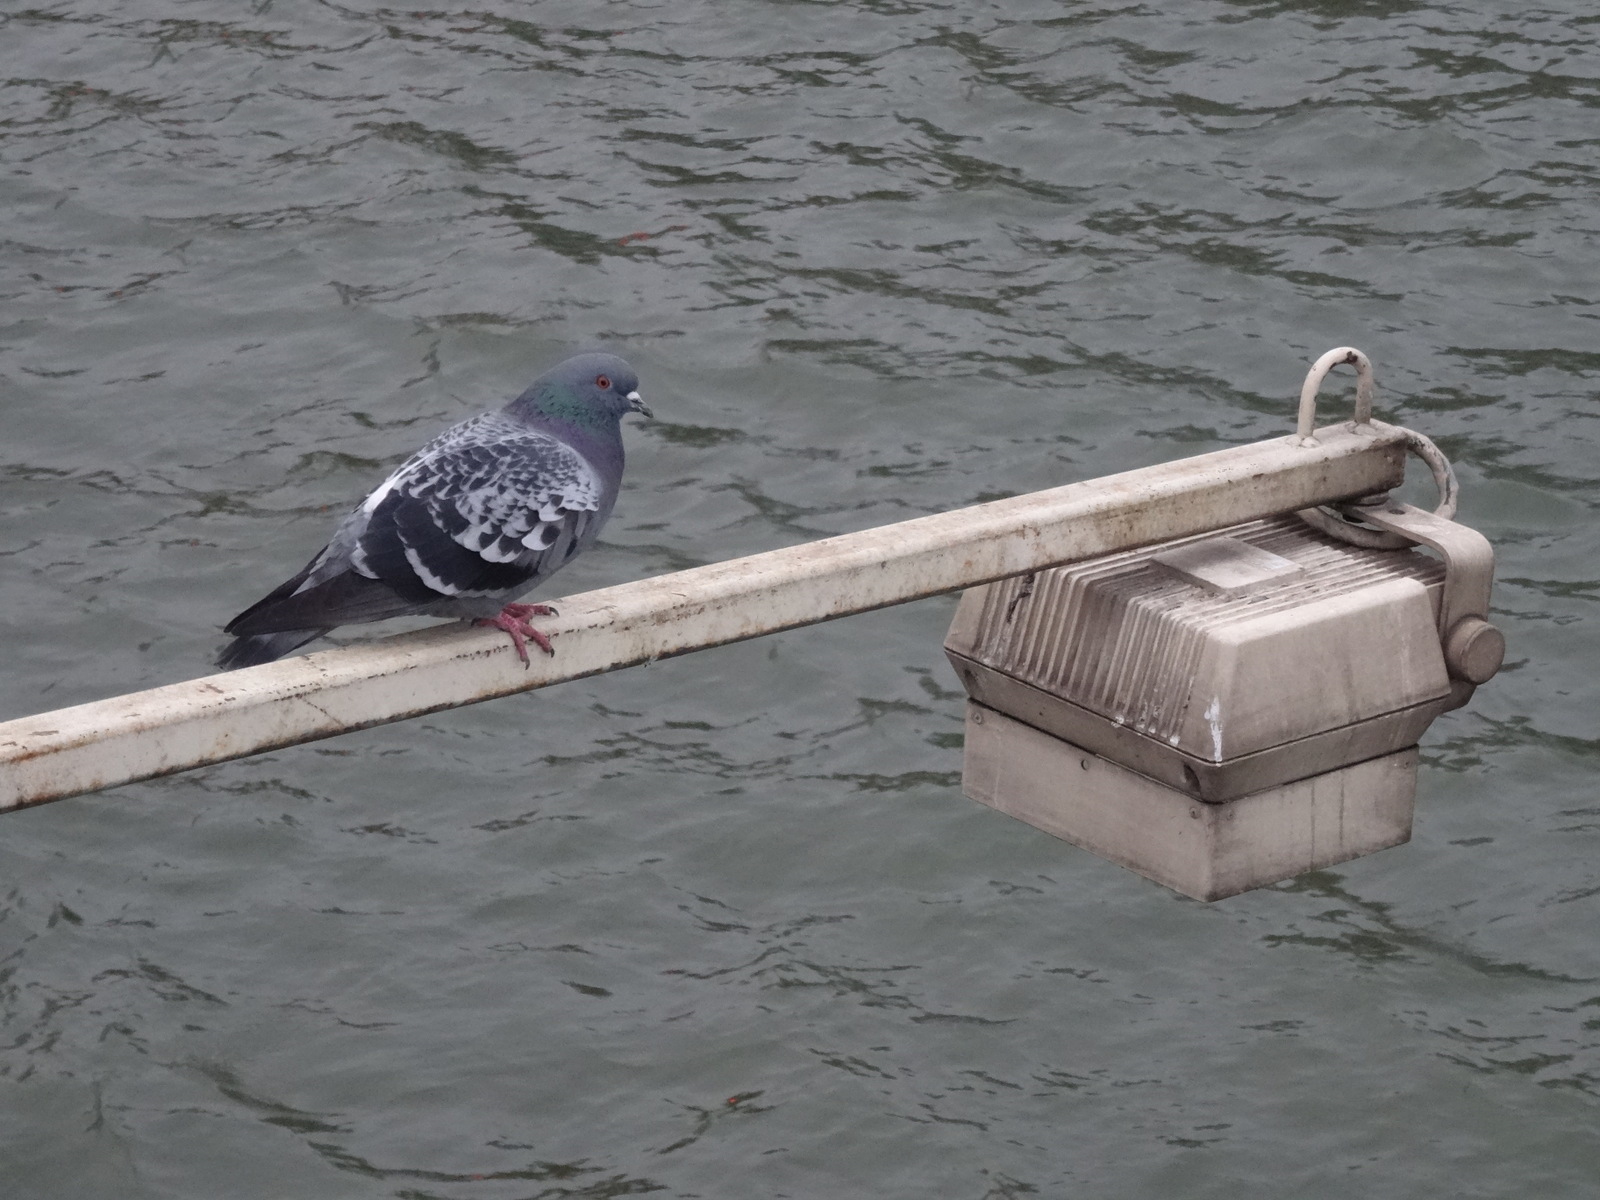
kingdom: Animalia
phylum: Chordata
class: Aves
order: Columbiformes
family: Columbidae
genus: Columba
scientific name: Columba livia
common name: Rock pigeon
